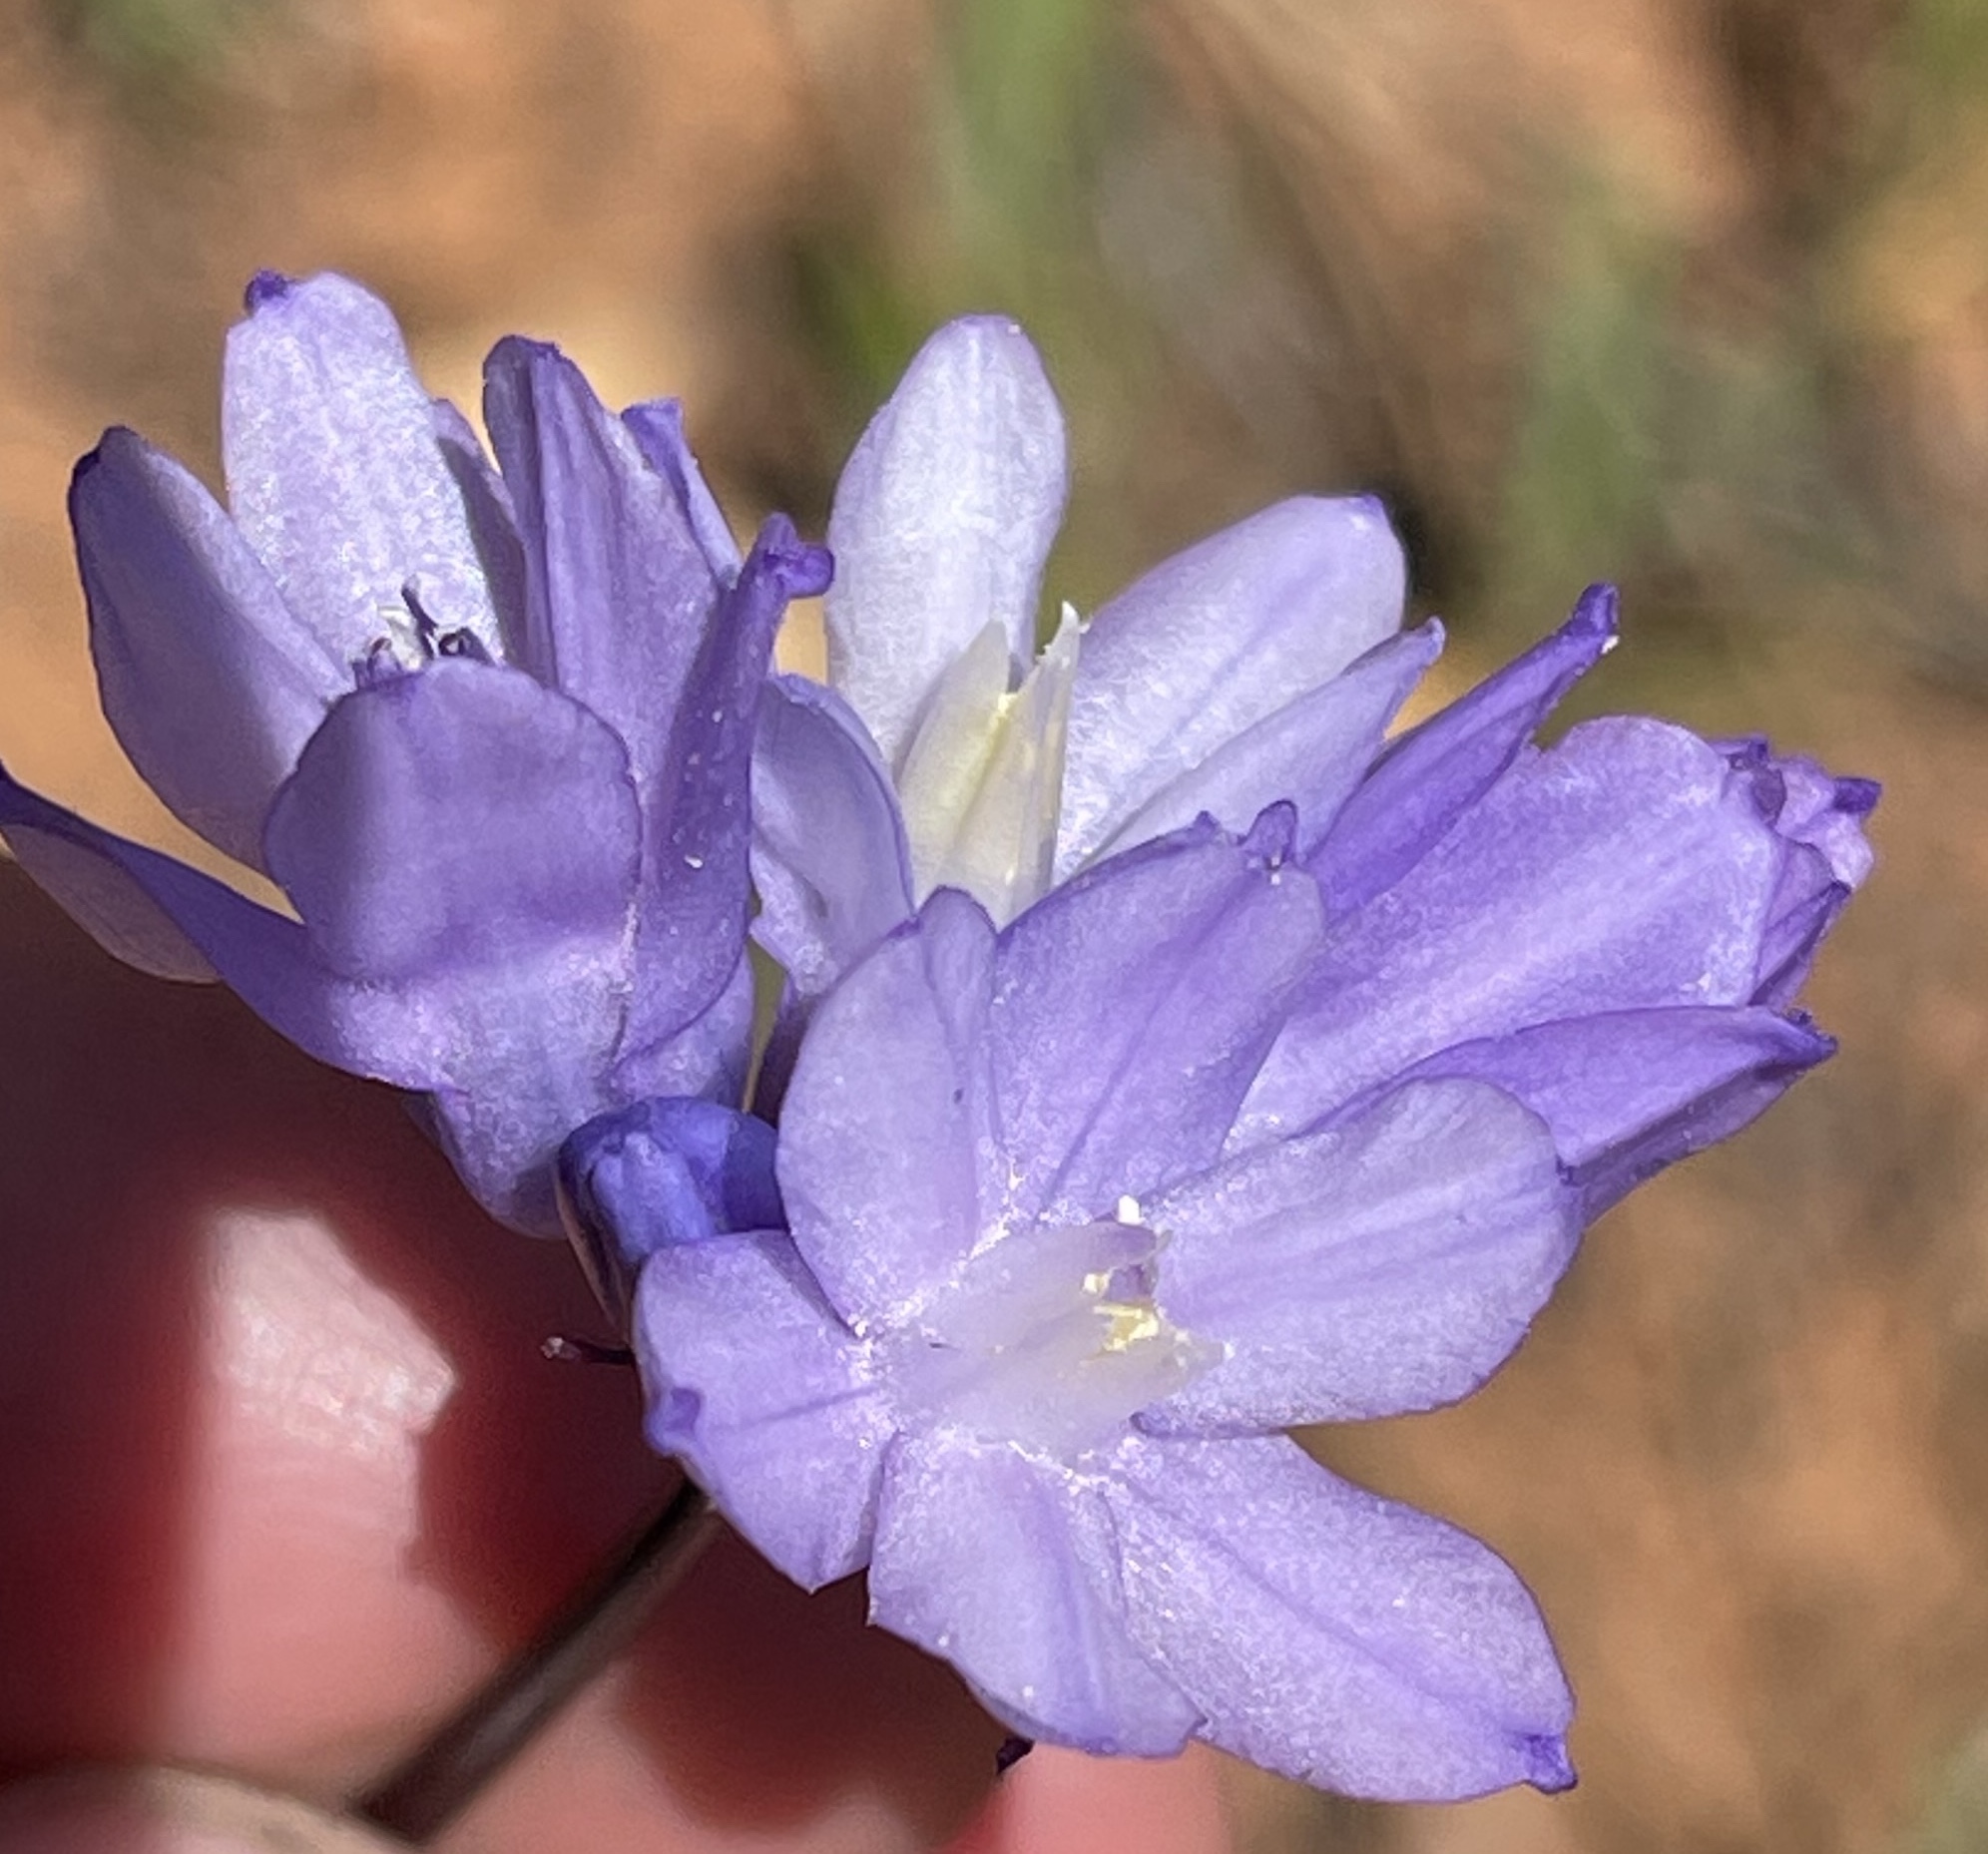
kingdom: Plantae
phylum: Tracheophyta
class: Liliopsida
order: Asparagales
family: Asparagaceae
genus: Dipterostemon
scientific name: Dipterostemon capitatus
